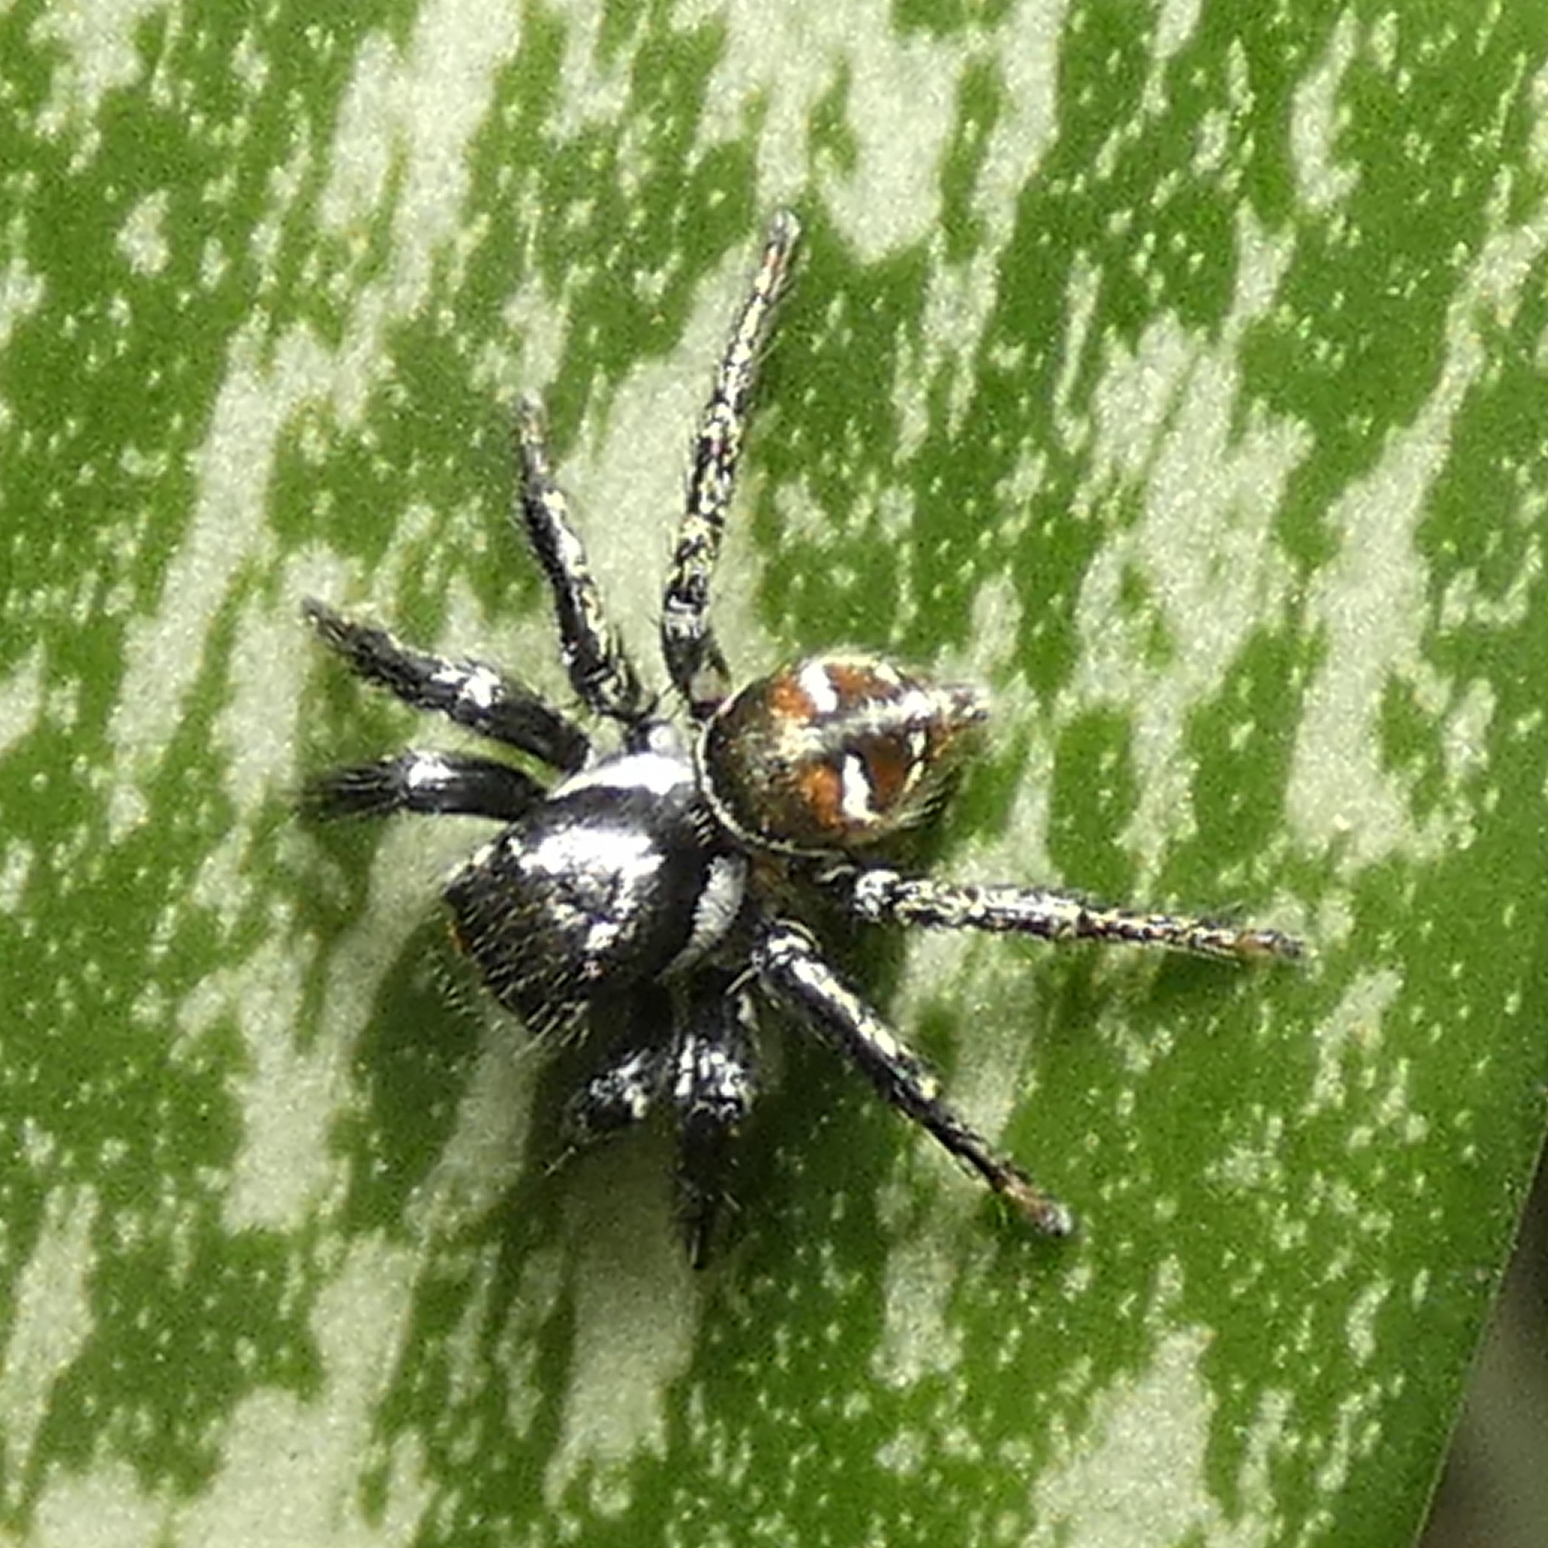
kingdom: Animalia
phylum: Arthropoda
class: Arachnida
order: Araneae
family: Salticidae
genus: Corythalia
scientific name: Corythalia spiralis
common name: Jumping spiders
